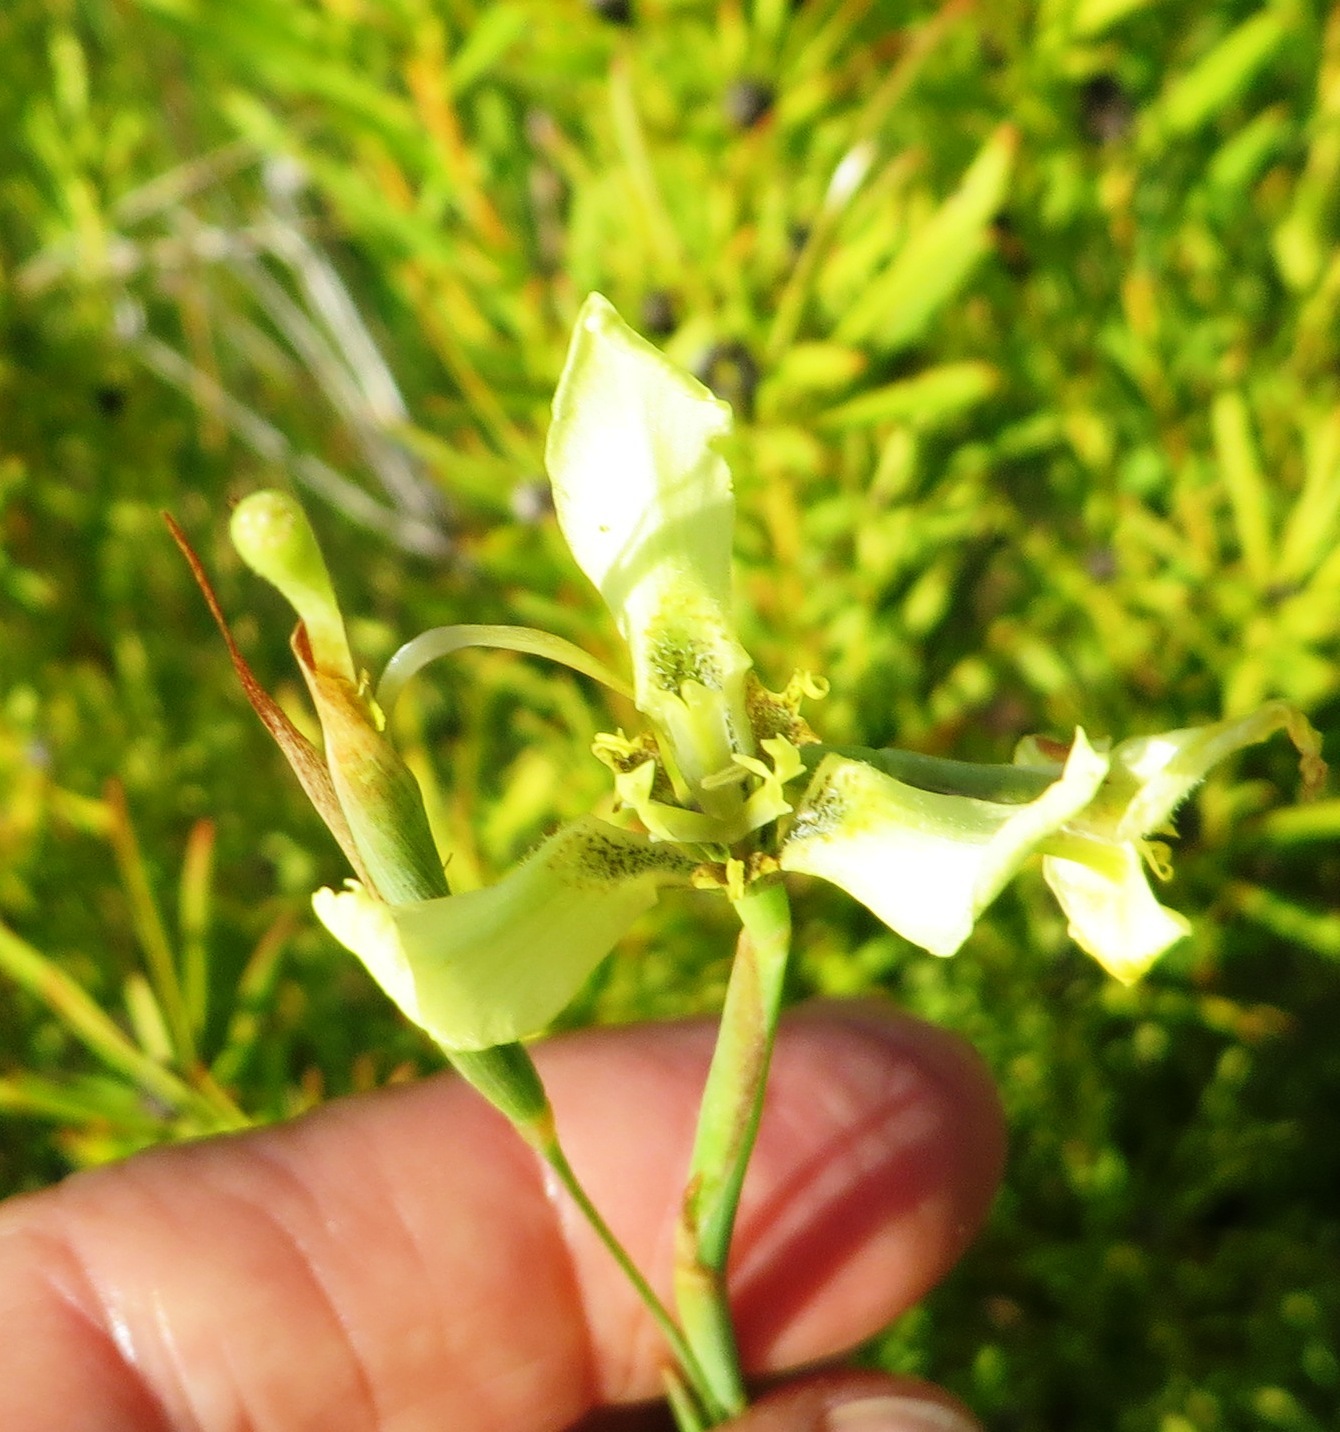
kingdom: Plantae
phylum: Tracheophyta
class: Liliopsida
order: Asparagales
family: Iridaceae
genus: Moraea
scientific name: Moraea bellendenii
